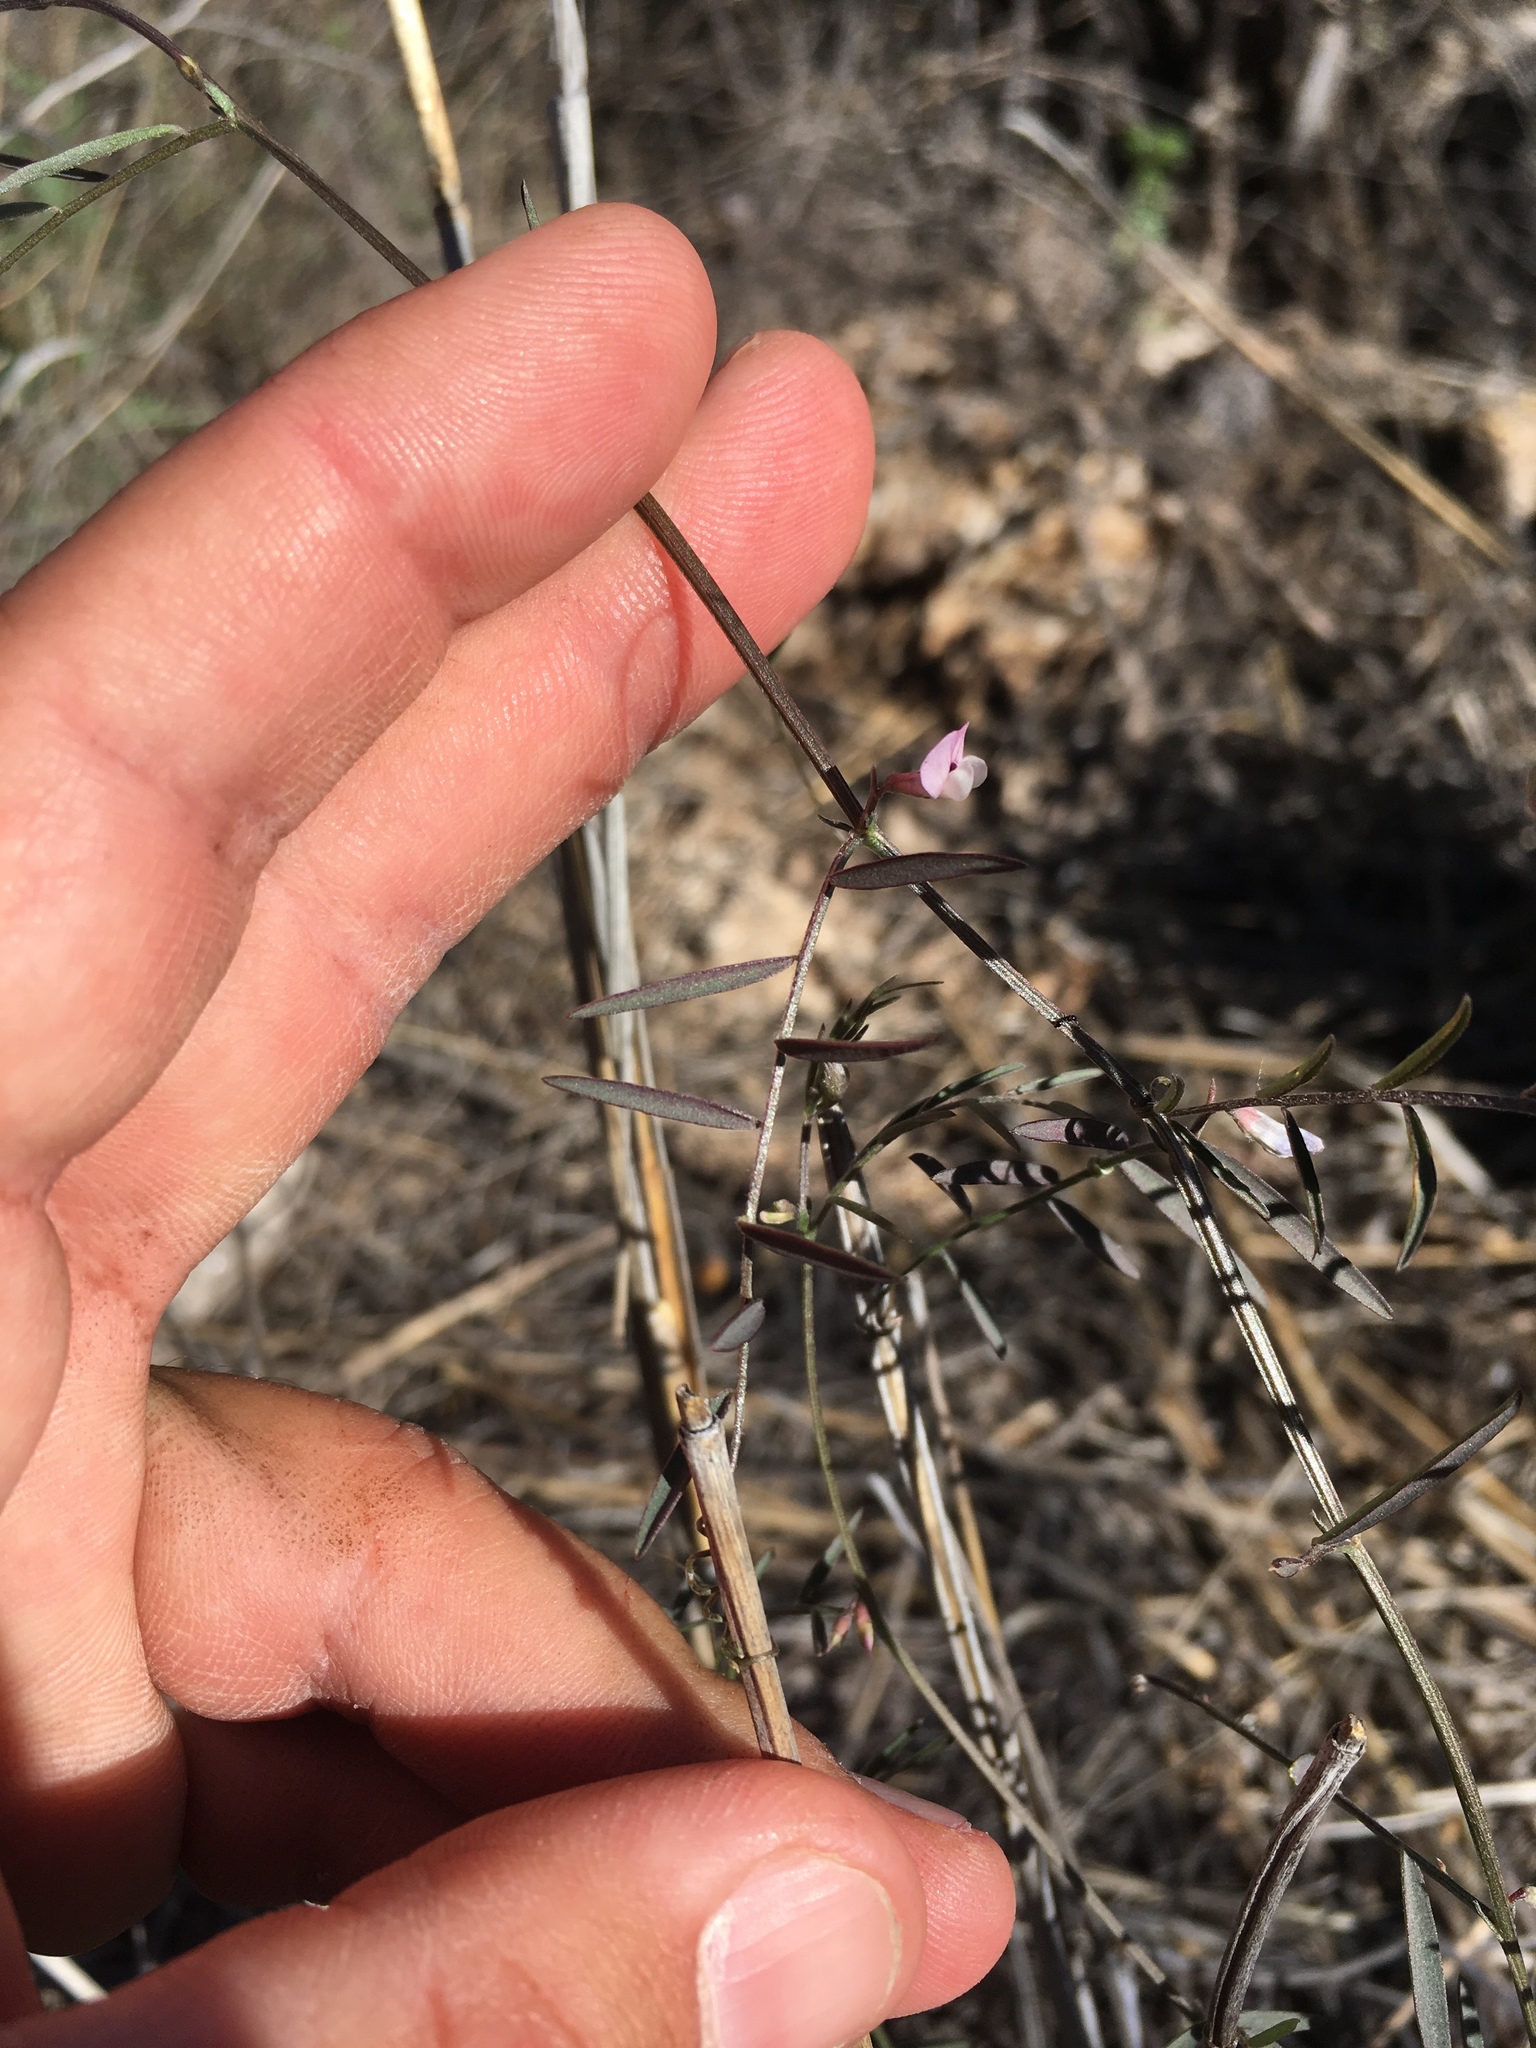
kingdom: Plantae
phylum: Tracheophyta
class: Magnoliopsida
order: Fabales
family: Fabaceae
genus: Vicia
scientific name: Vicia ludoviciana
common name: Louisiana vetch
